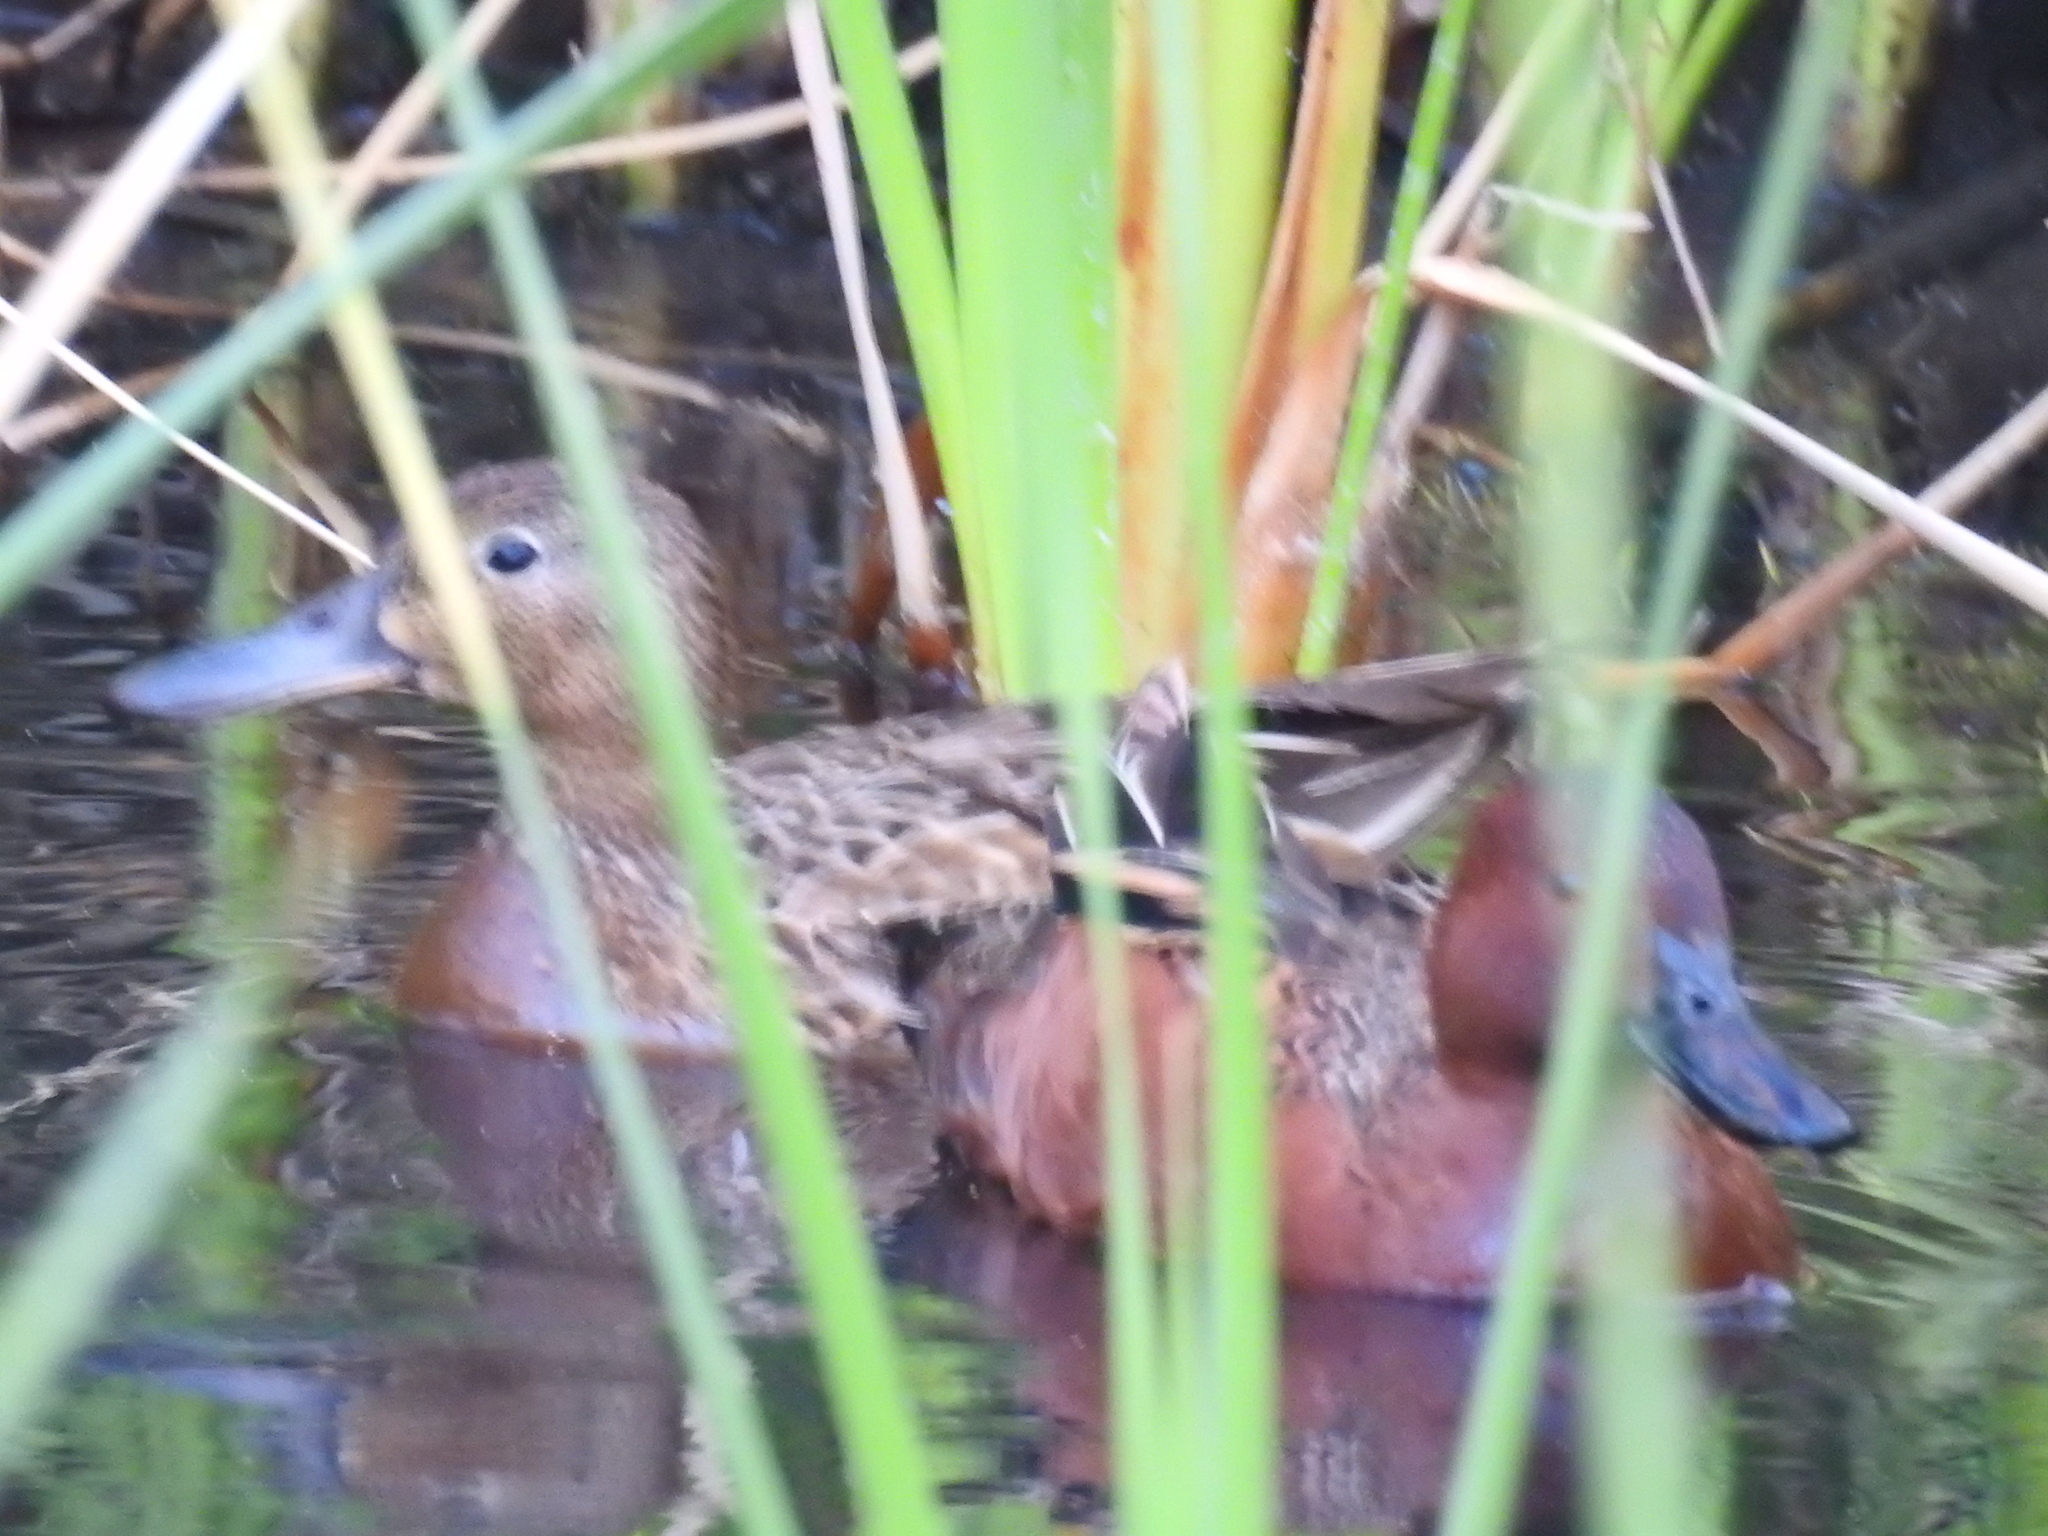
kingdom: Animalia
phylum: Chordata
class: Aves
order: Anseriformes
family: Anatidae
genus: Spatula
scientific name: Spatula cyanoptera
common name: Cinnamon teal
